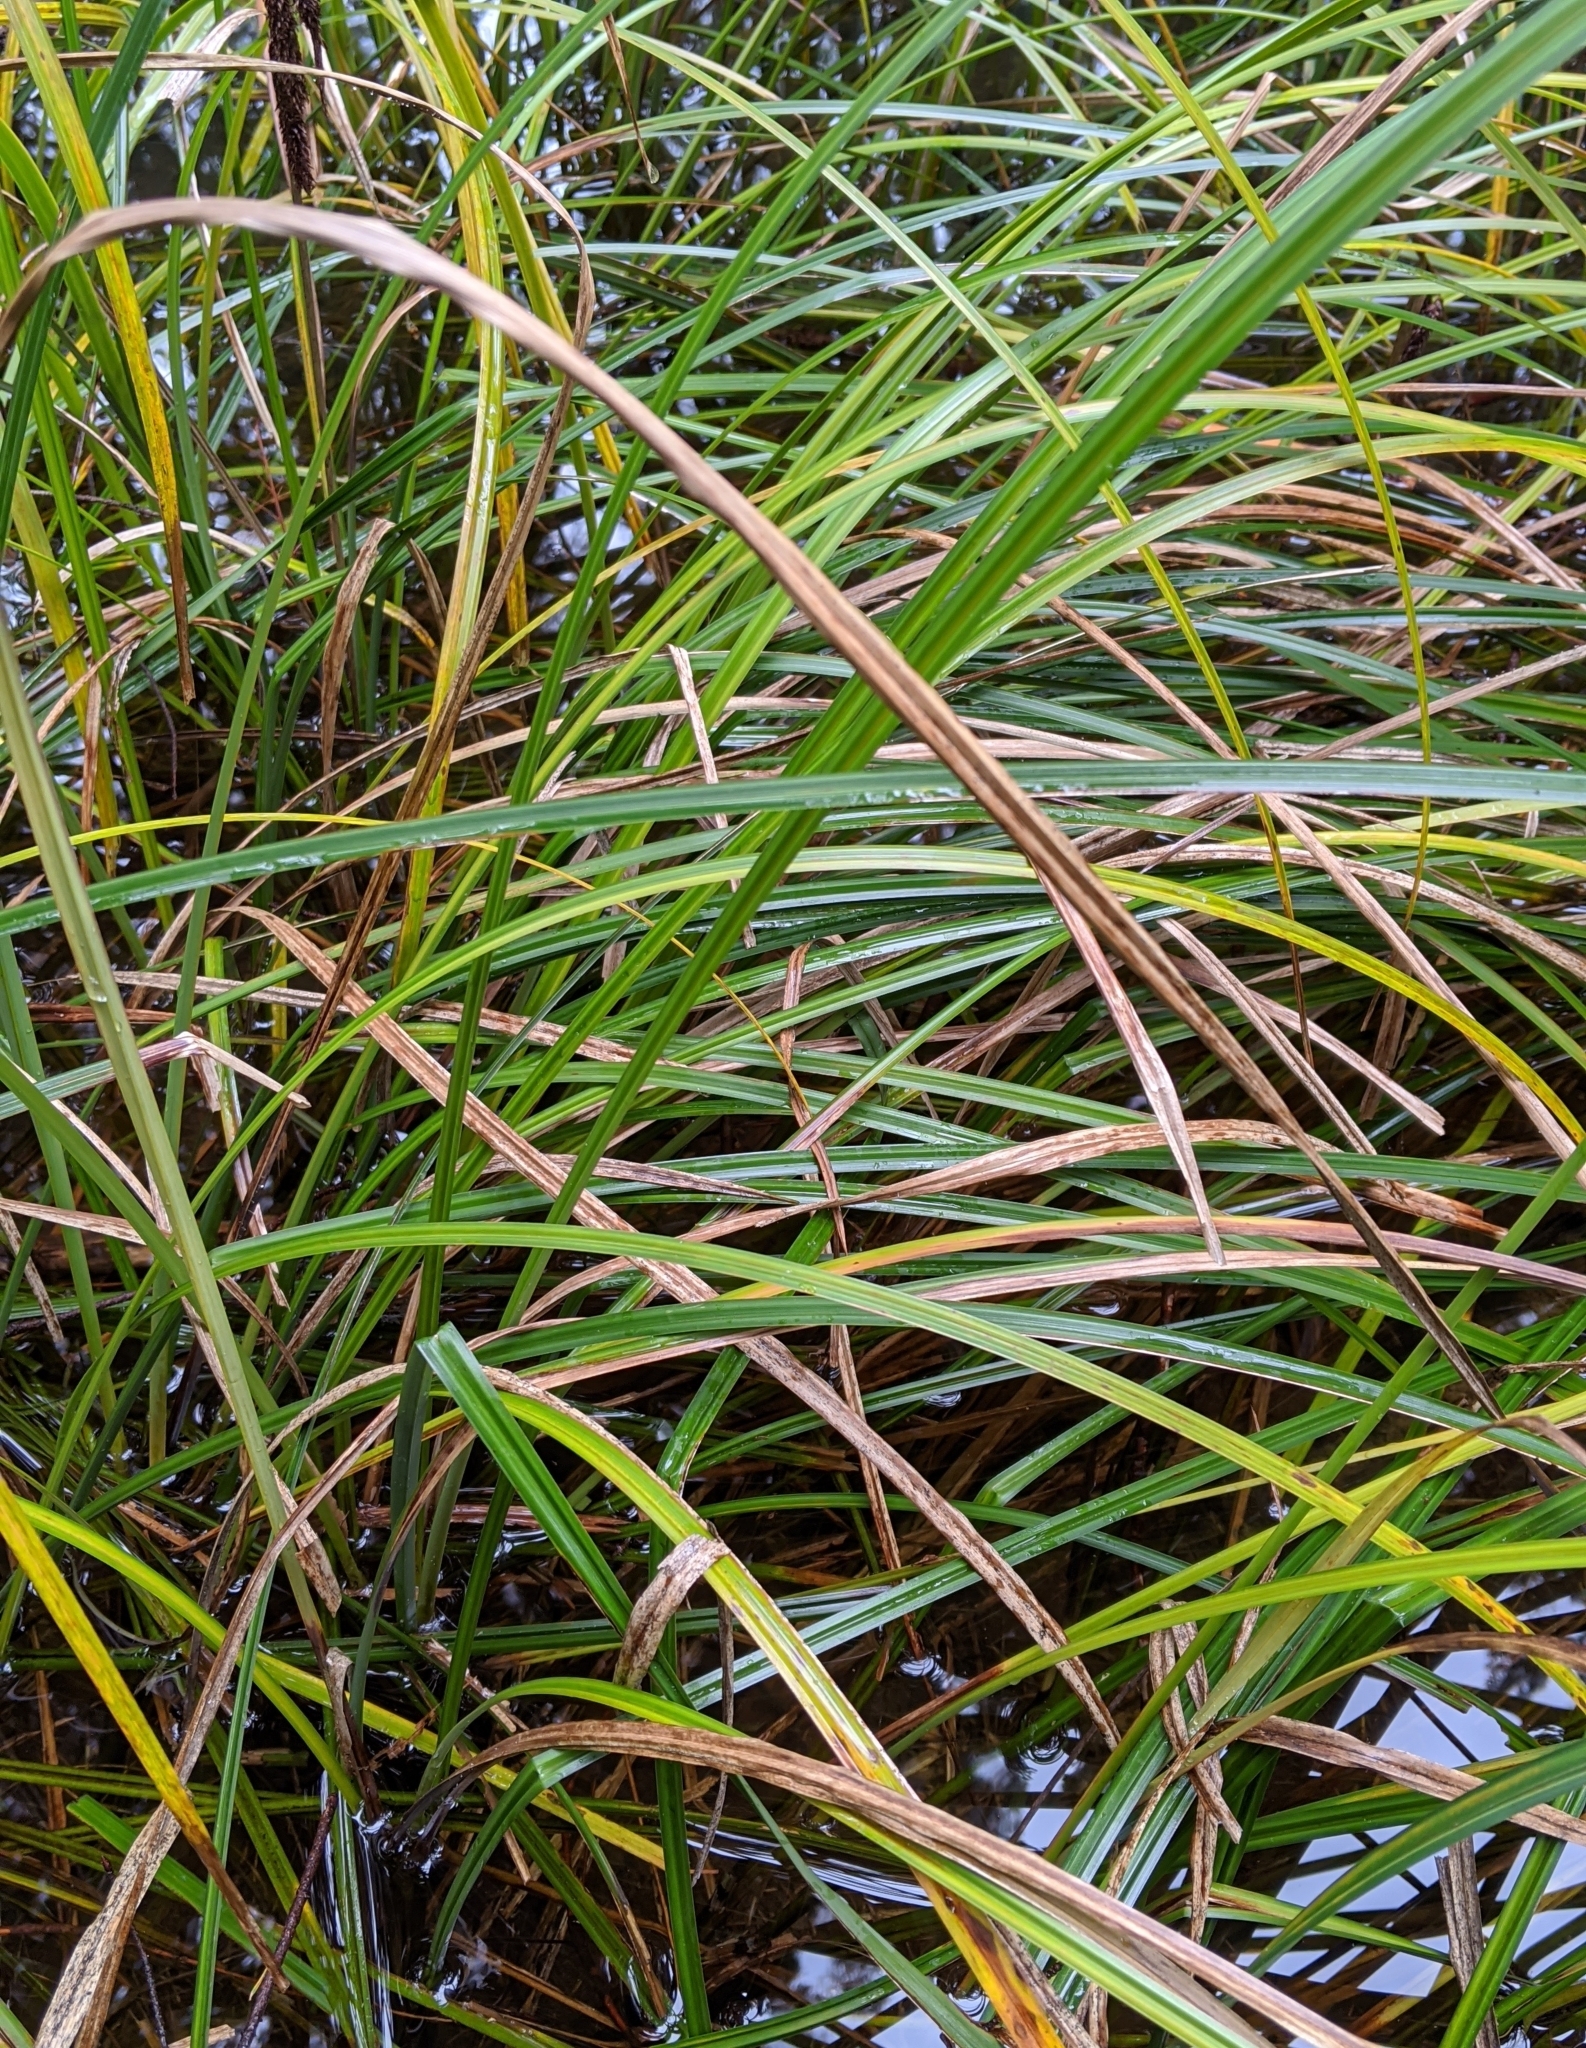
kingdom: Plantae
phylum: Tracheophyta
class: Liliopsida
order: Poales
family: Cyperaceae
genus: Carex
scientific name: Carex obnupta
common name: Slough sedge
